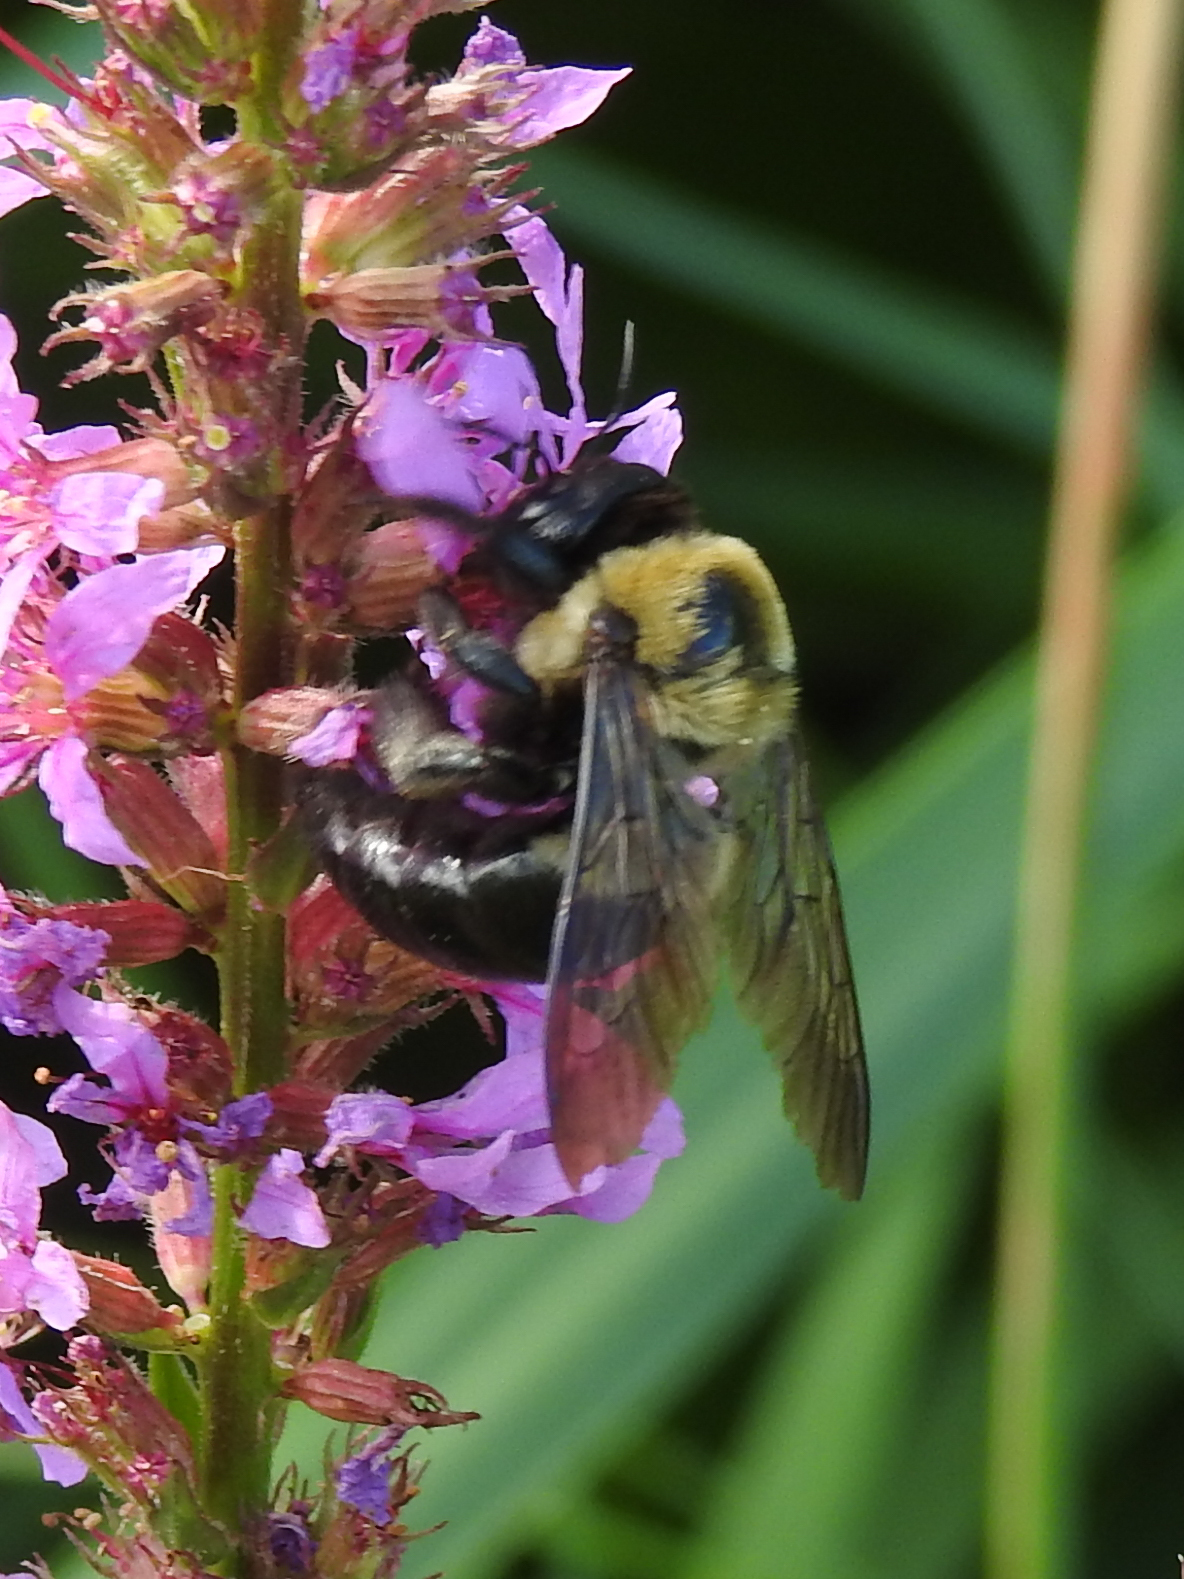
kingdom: Animalia
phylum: Arthropoda
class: Insecta
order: Hymenoptera
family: Apidae
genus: Xylocopa
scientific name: Xylocopa virginica
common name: Carpenter bee
